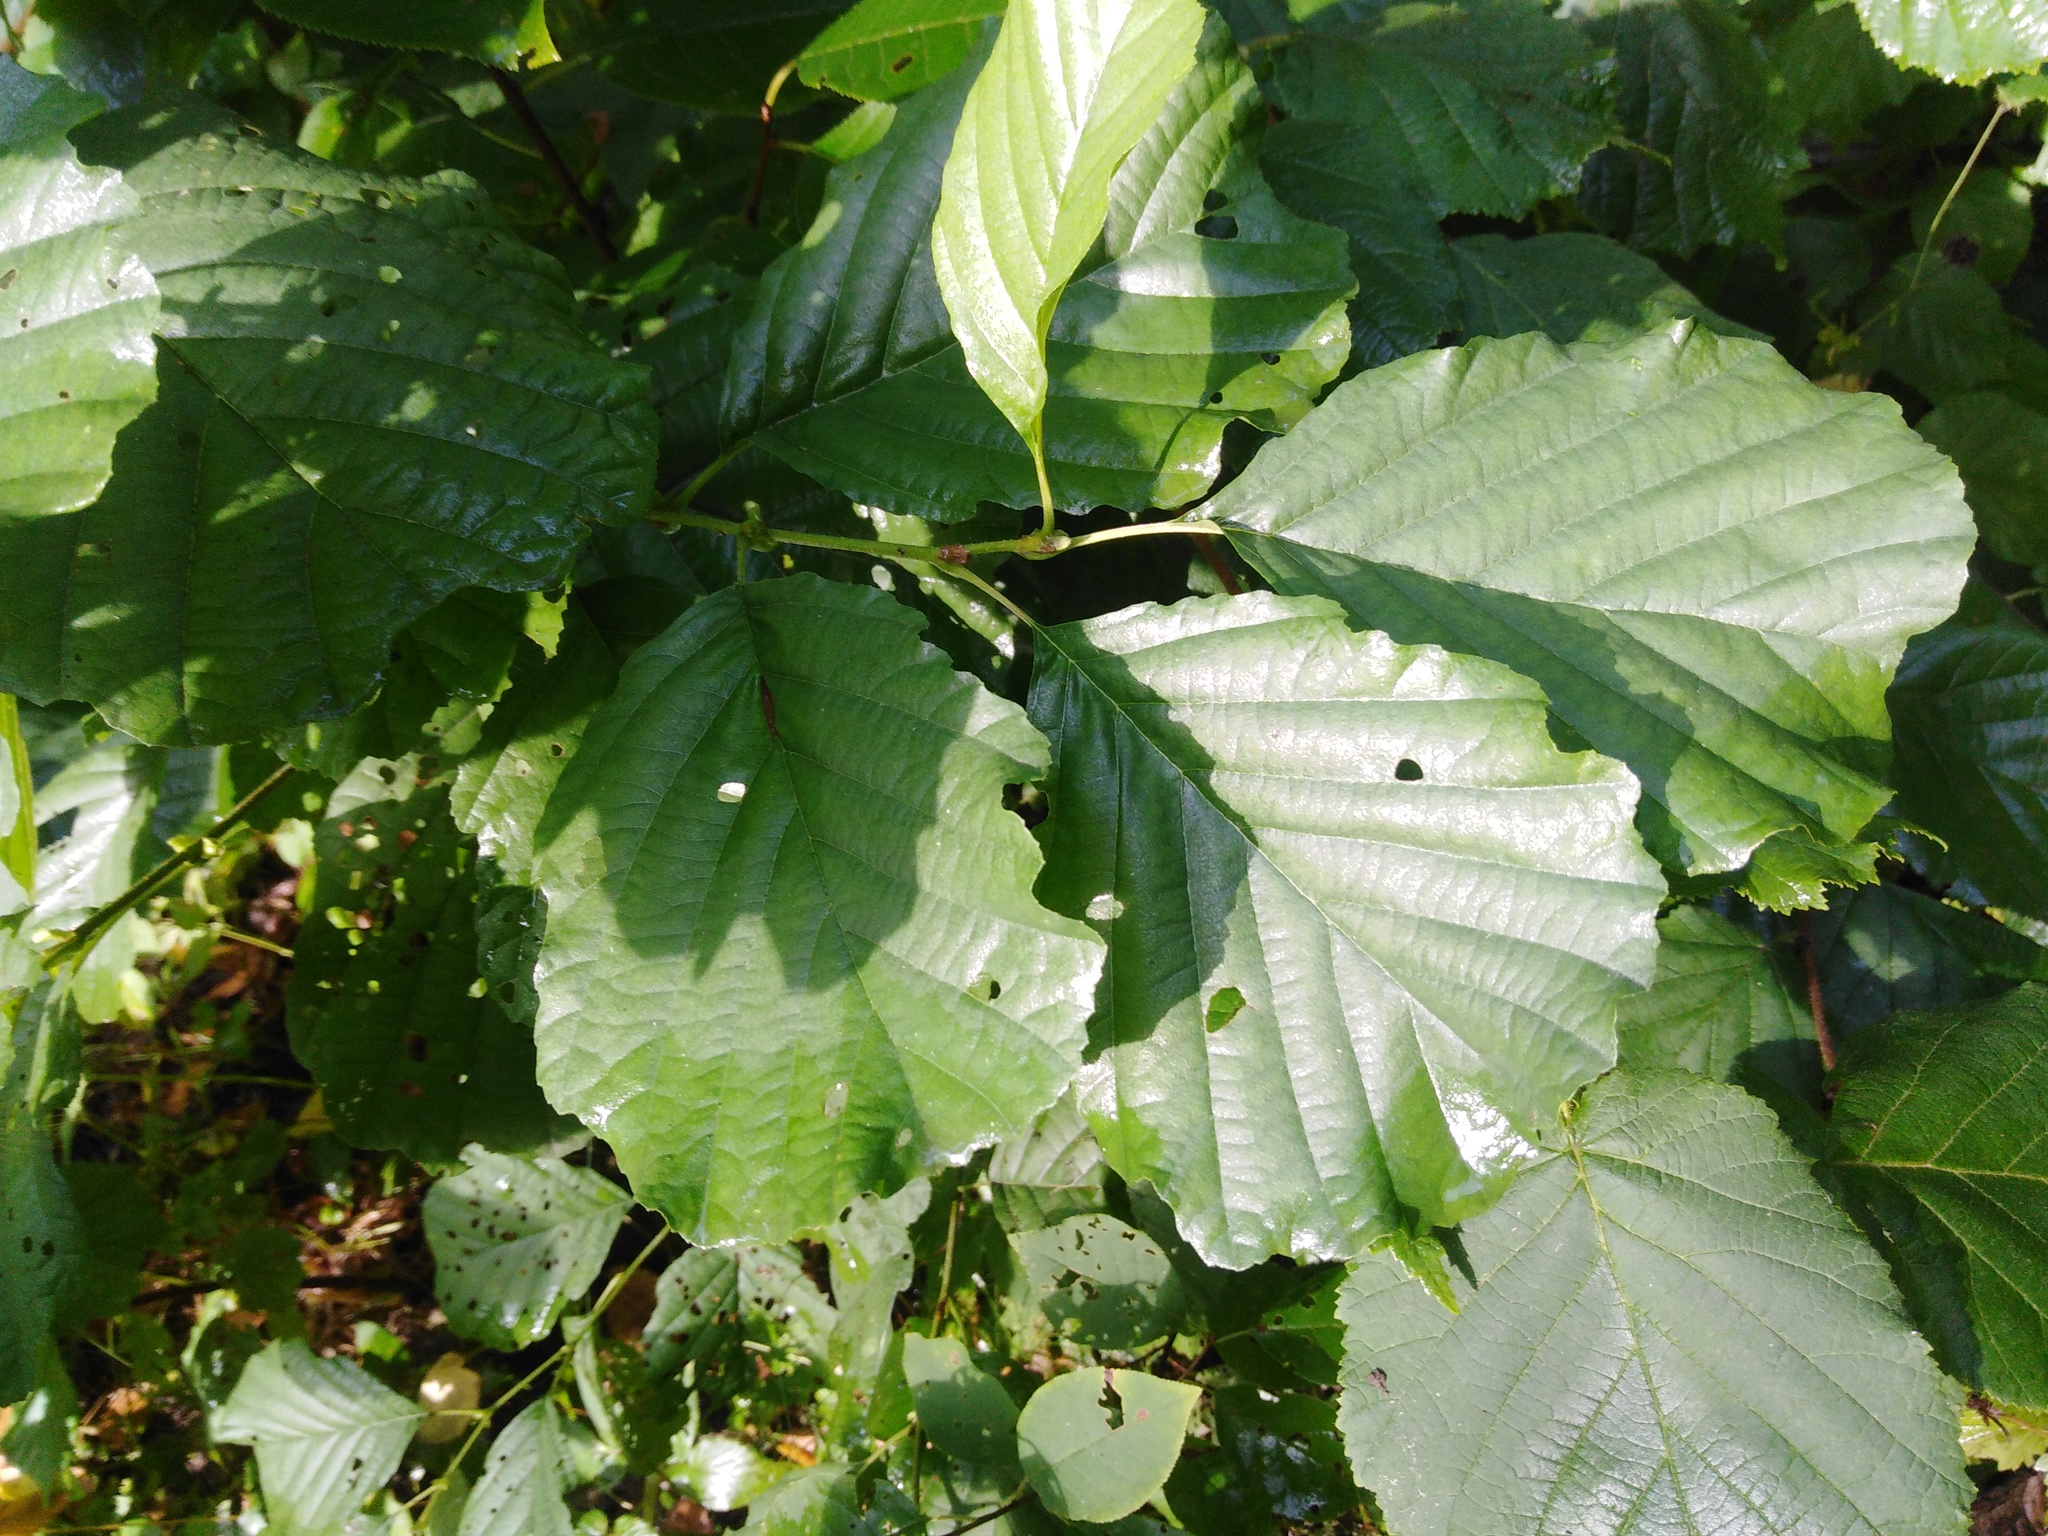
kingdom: Plantae
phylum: Tracheophyta
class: Magnoliopsida
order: Fagales
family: Betulaceae
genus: Alnus
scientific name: Alnus glutinosa
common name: Black alder
